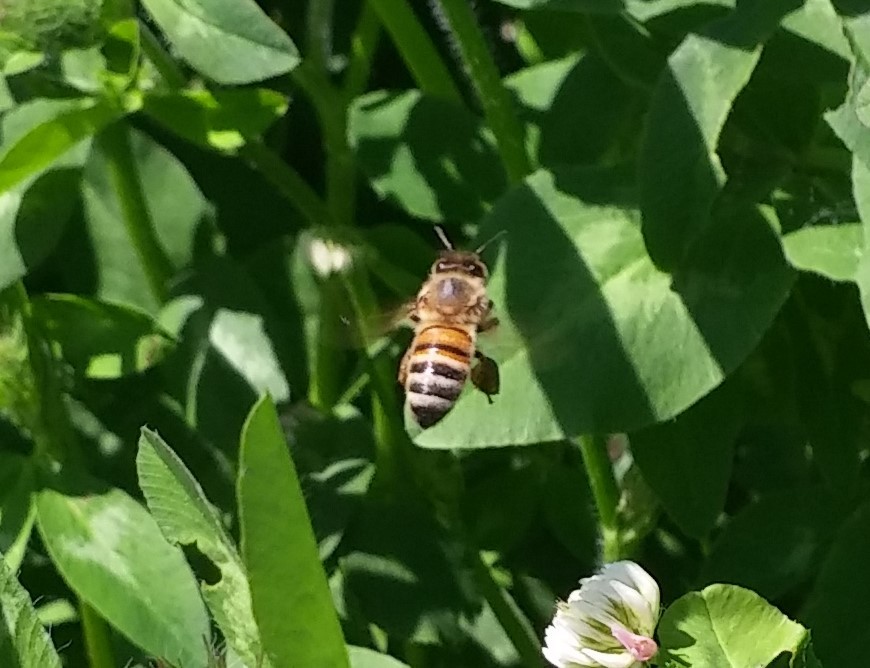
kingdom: Animalia
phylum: Arthropoda
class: Insecta
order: Hymenoptera
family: Apidae
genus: Apis
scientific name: Apis mellifera
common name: Honey bee
